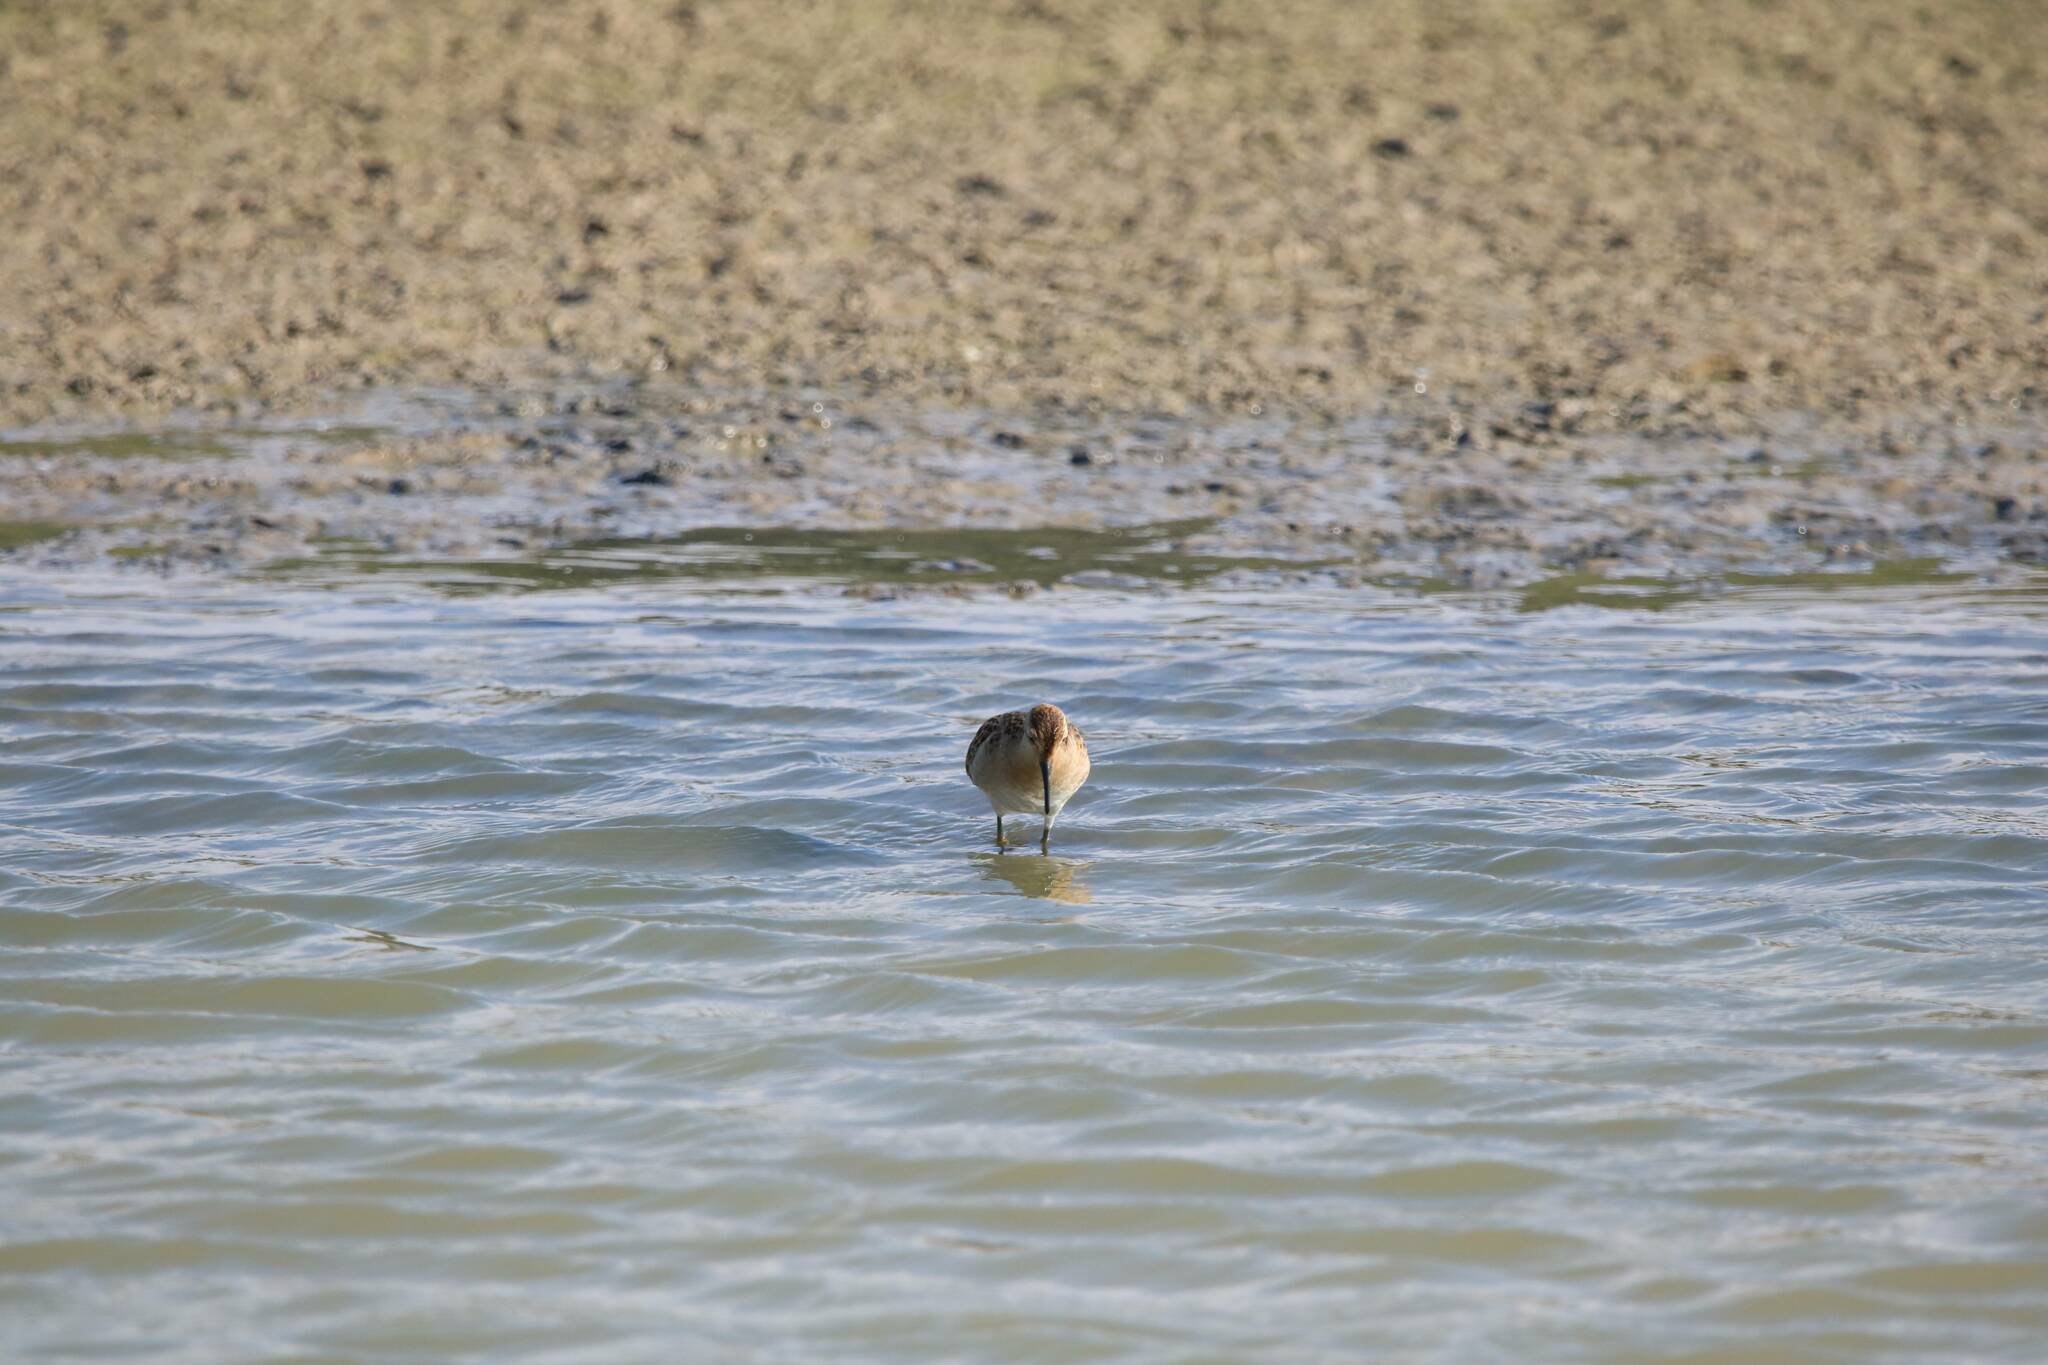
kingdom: Animalia
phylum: Chordata
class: Aves
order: Charadriiformes
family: Scolopacidae
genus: Calidris
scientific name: Calidris pugnax
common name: Ruff
